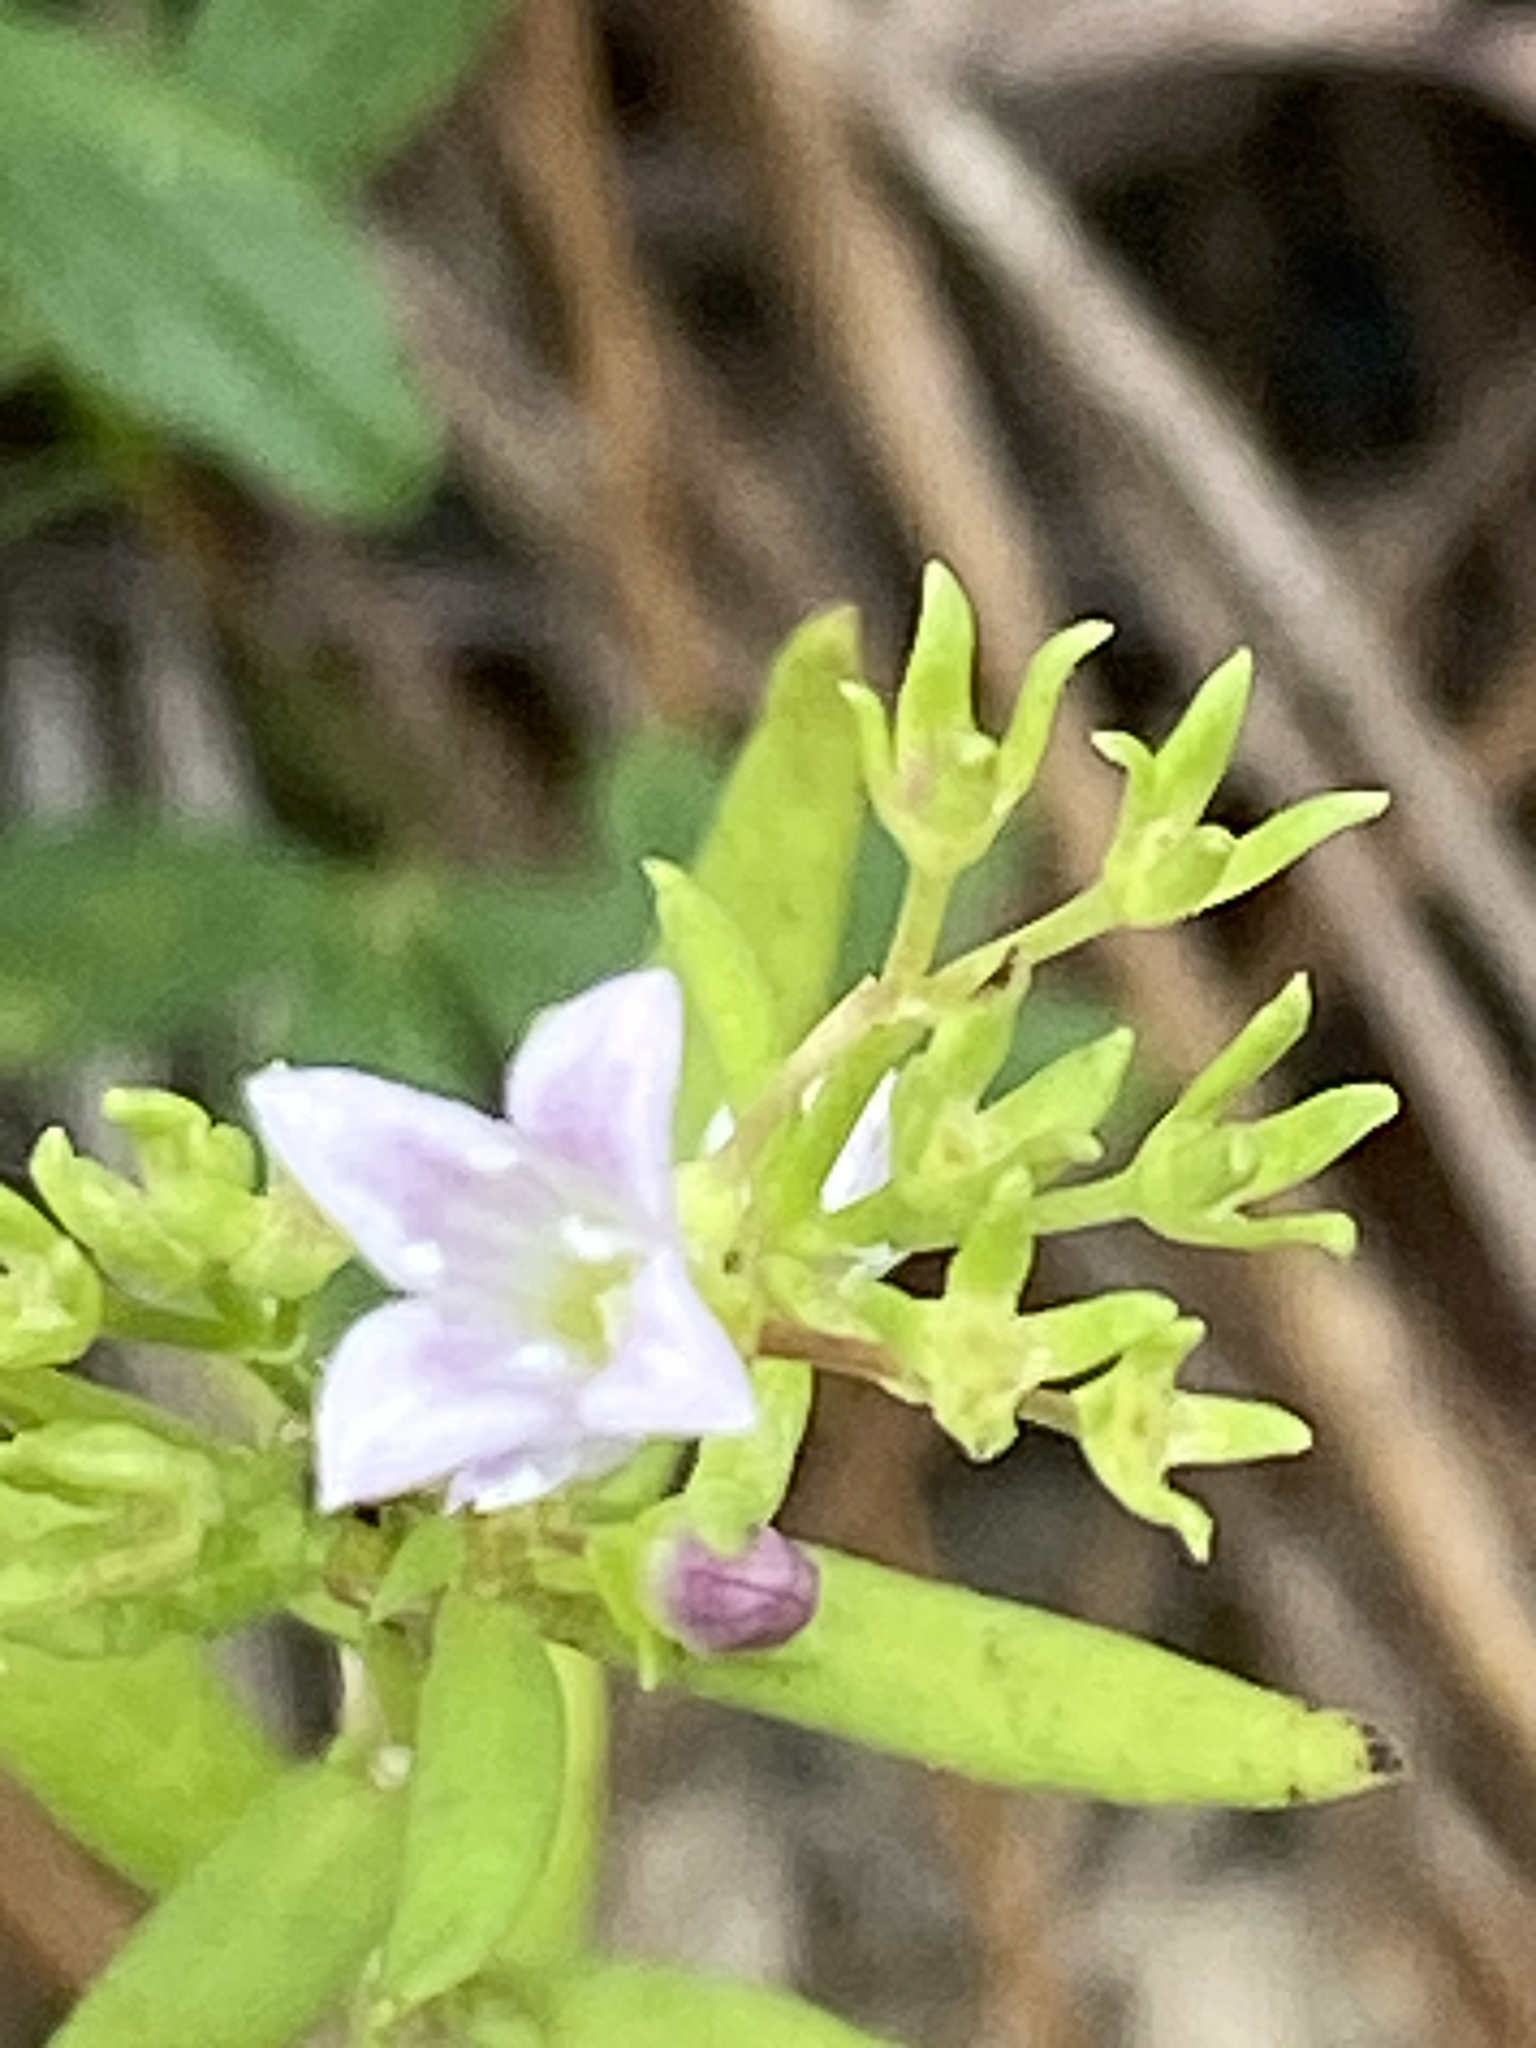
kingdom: Plantae
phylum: Tracheophyta
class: Magnoliopsida
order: Gentianales
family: Rubiaceae
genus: Houstonia
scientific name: Houstonia longifolia
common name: Long-leaved bluets
